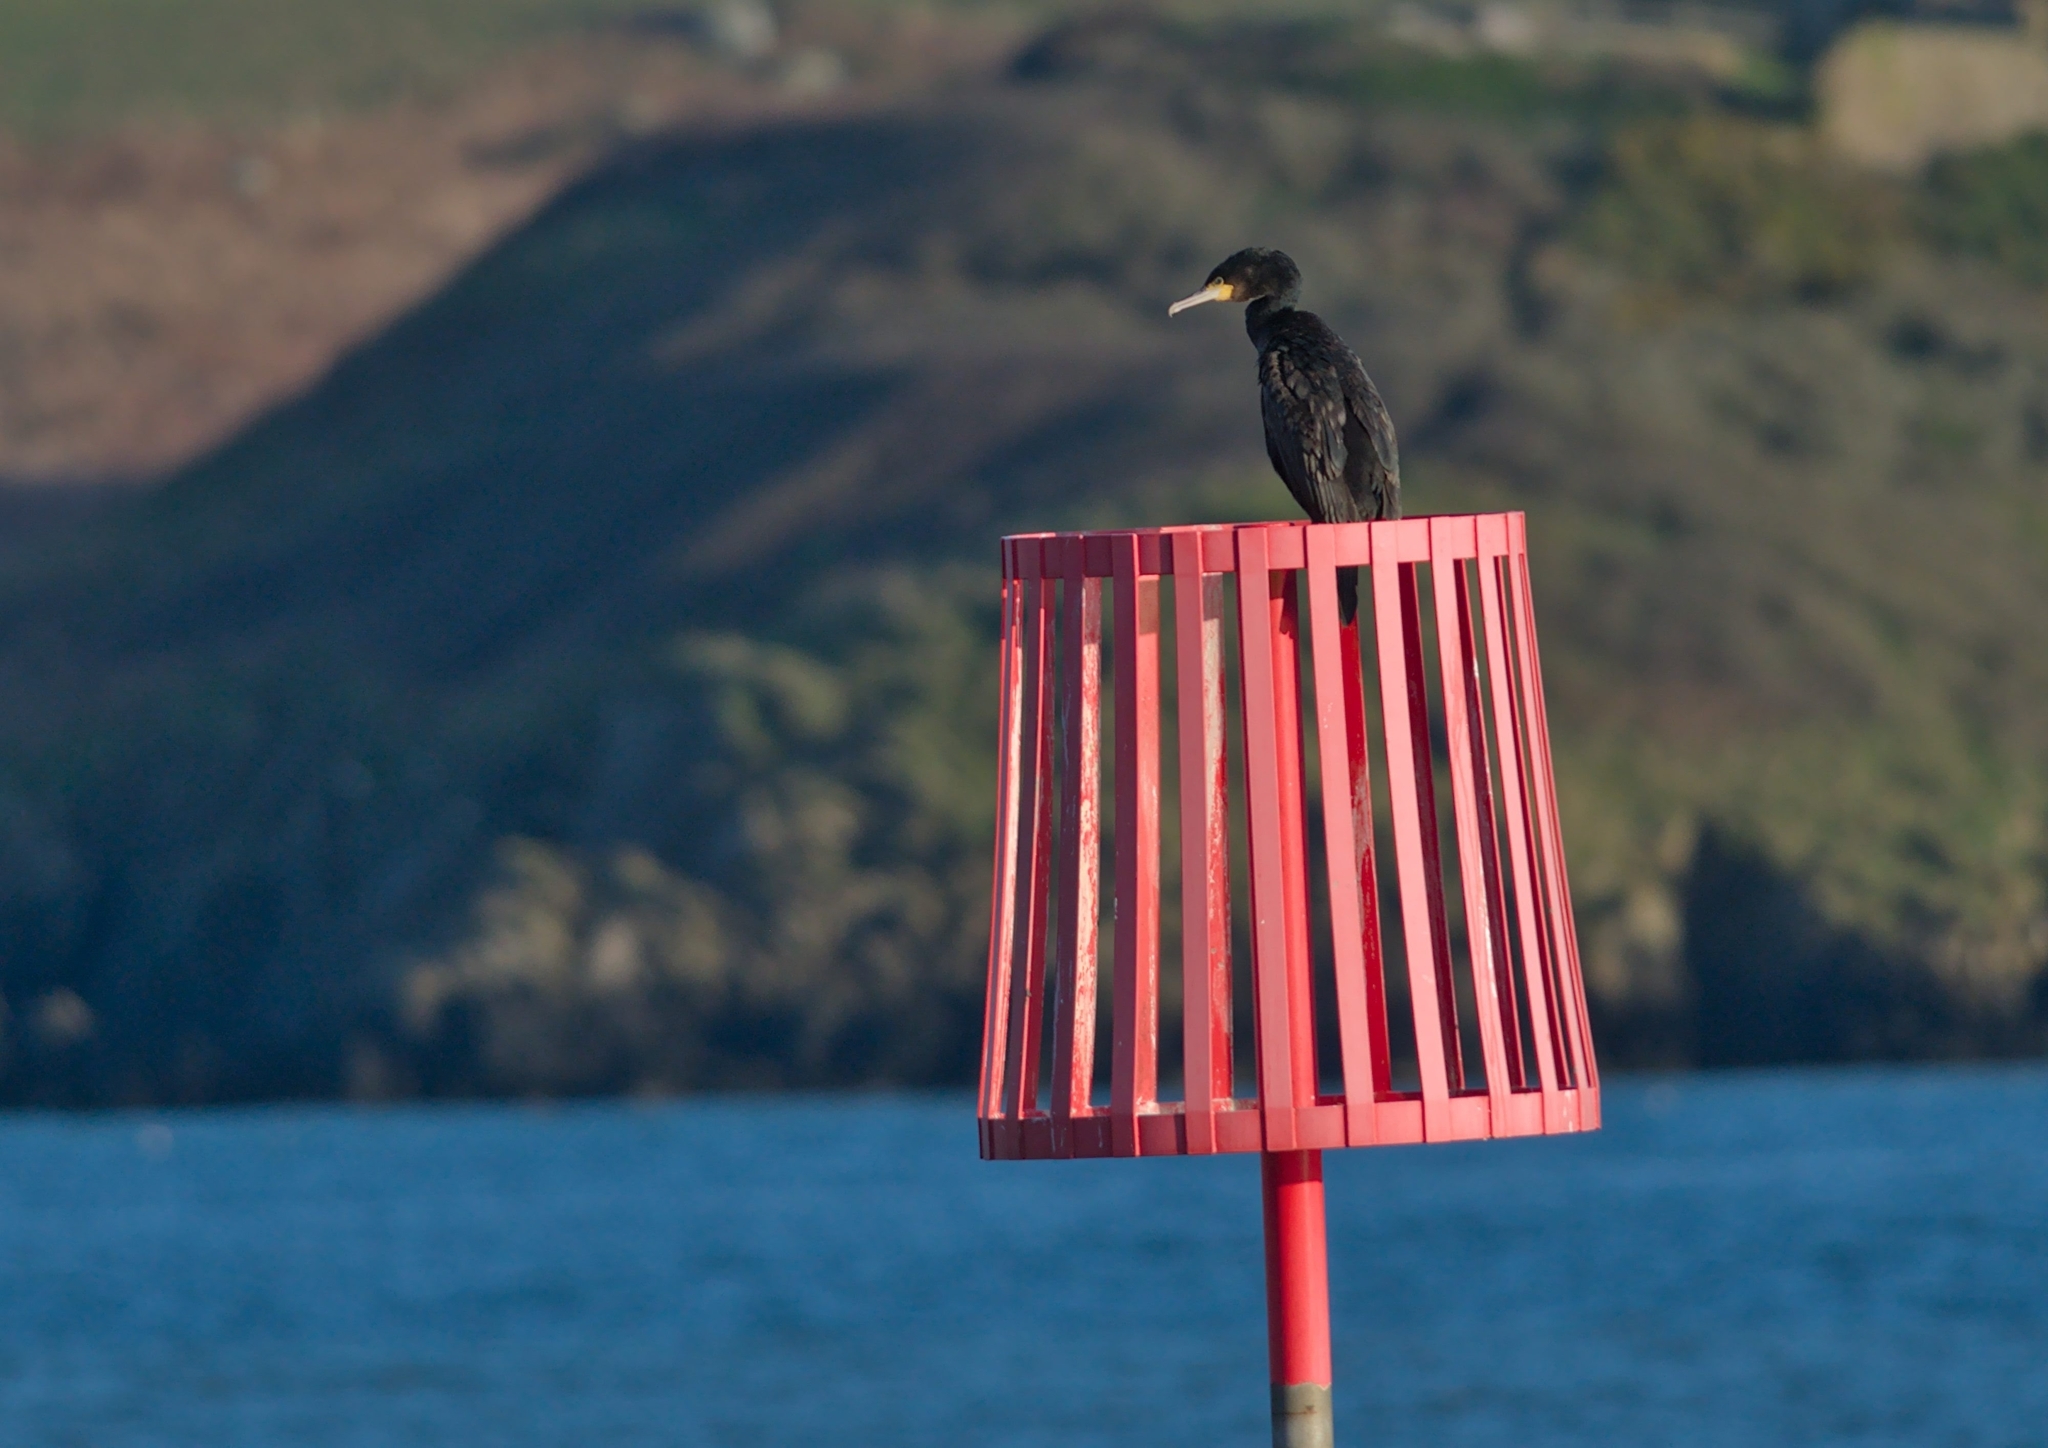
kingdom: Animalia
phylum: Chordata
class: Aves
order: Suliformes
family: Phalacrocoracidae
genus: Phalacrocorax
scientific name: Phalacrocorax carbo
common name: Great cormorant
